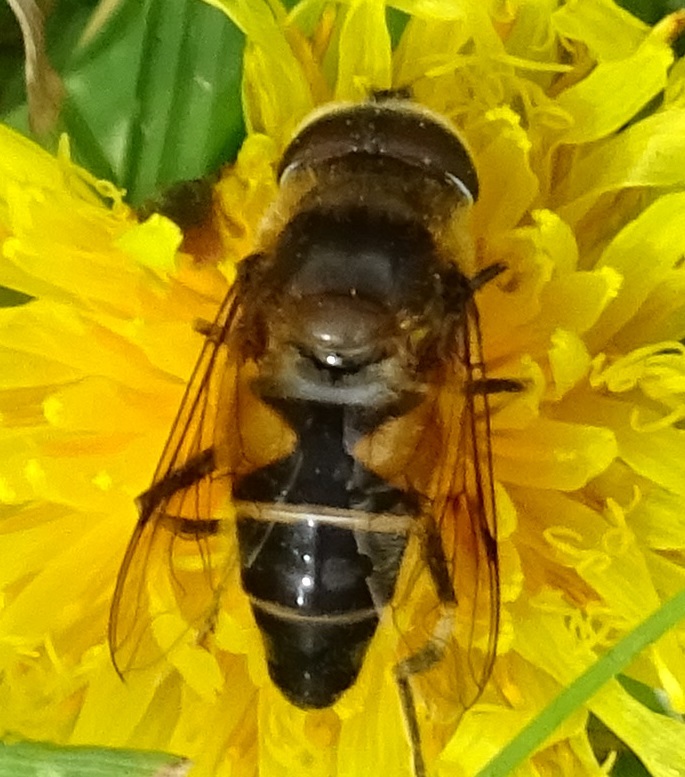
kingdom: Animalia
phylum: Arthropoda
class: Insecta
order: Diptera
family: Syrphidae
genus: Eristalis
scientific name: Eristalis pertinax
